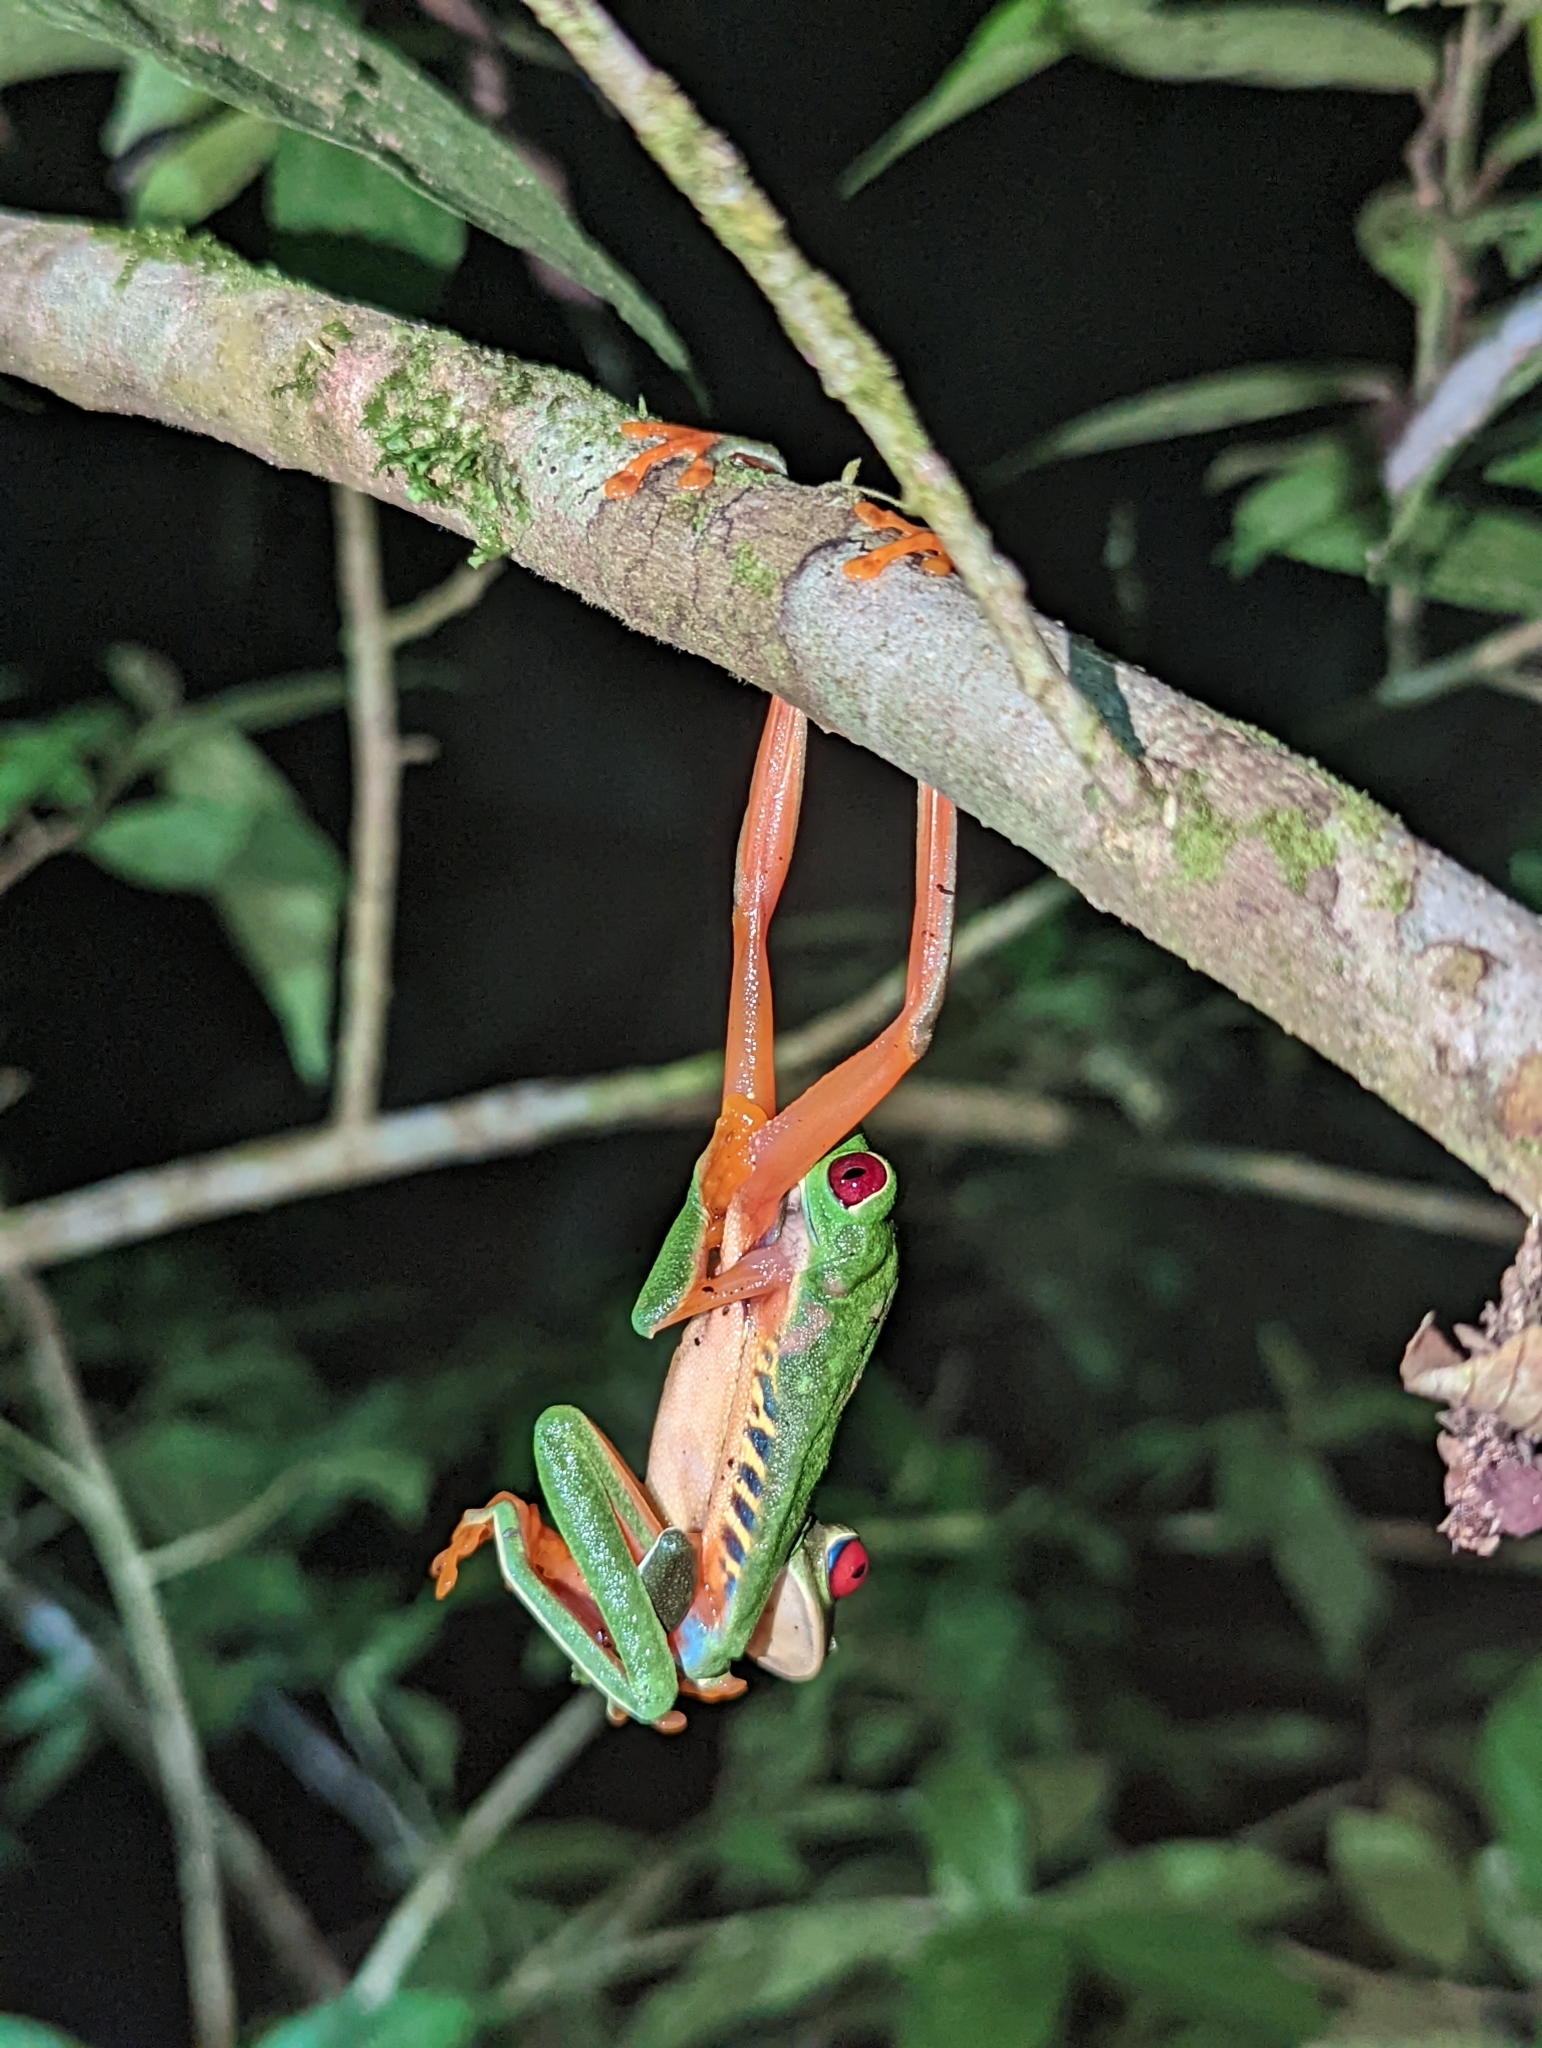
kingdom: Animalia
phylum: Chordata
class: Amphibia
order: Anura
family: Phyllomedusidae
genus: Agalychnis
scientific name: Agalychnis callidryas
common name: Red-eyed treefrog
